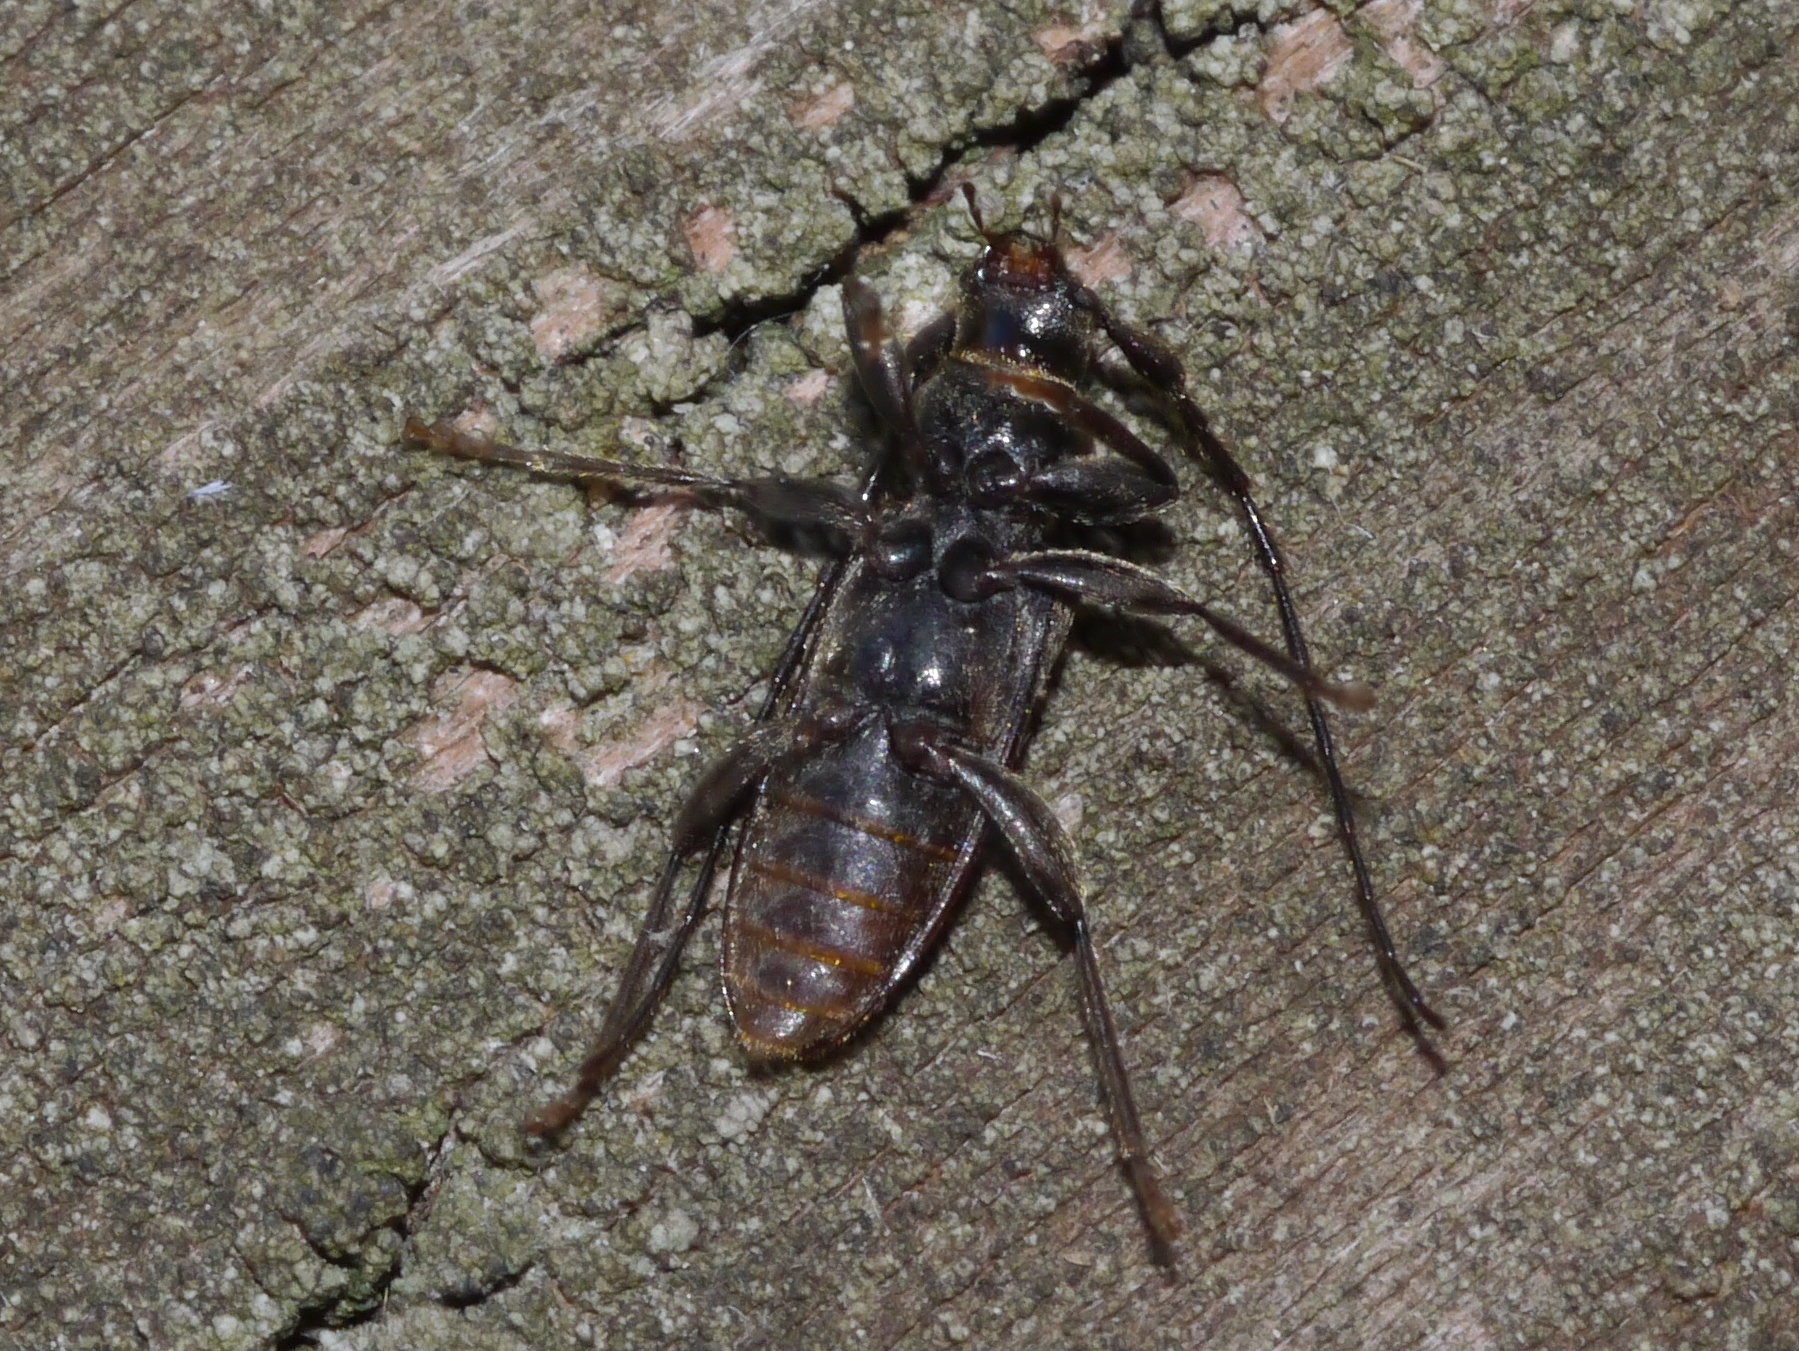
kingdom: Animalia
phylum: Arthropoda
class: Insecta
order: Coleoptera
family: Cerambycidae
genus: Opsimus
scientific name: Opsimus quadrilineatus
